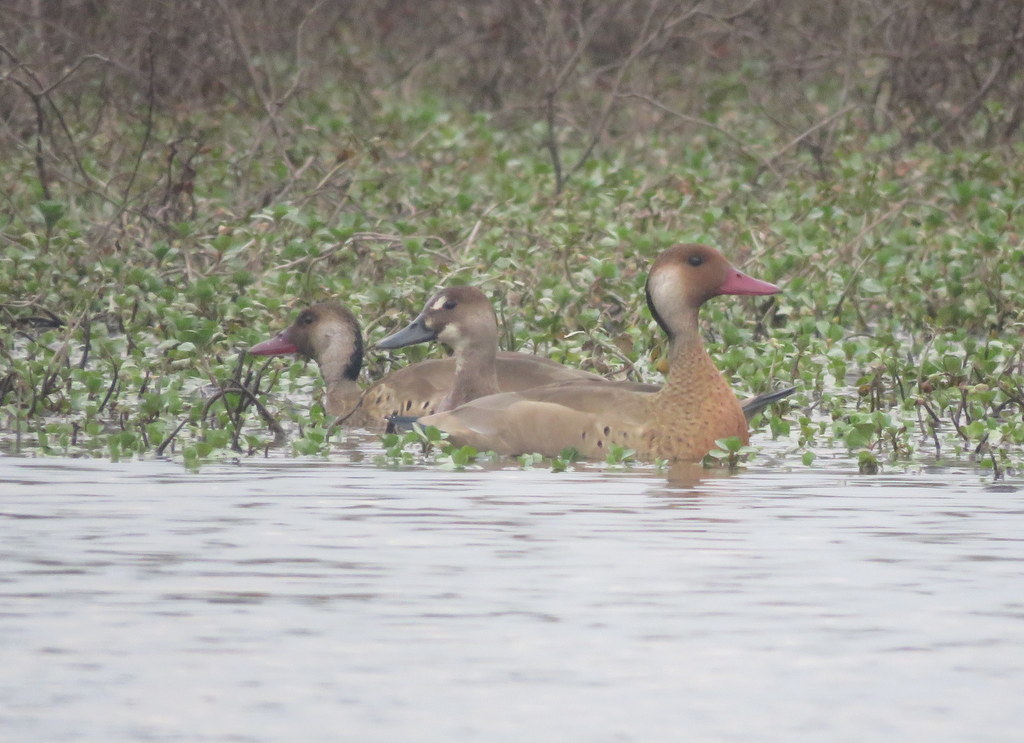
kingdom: Animalia
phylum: Chordata
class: Aves
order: Anseriformes
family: Anatidae
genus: Amazonetta
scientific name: Amazonetta brasiliensis
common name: Brazilian teal
